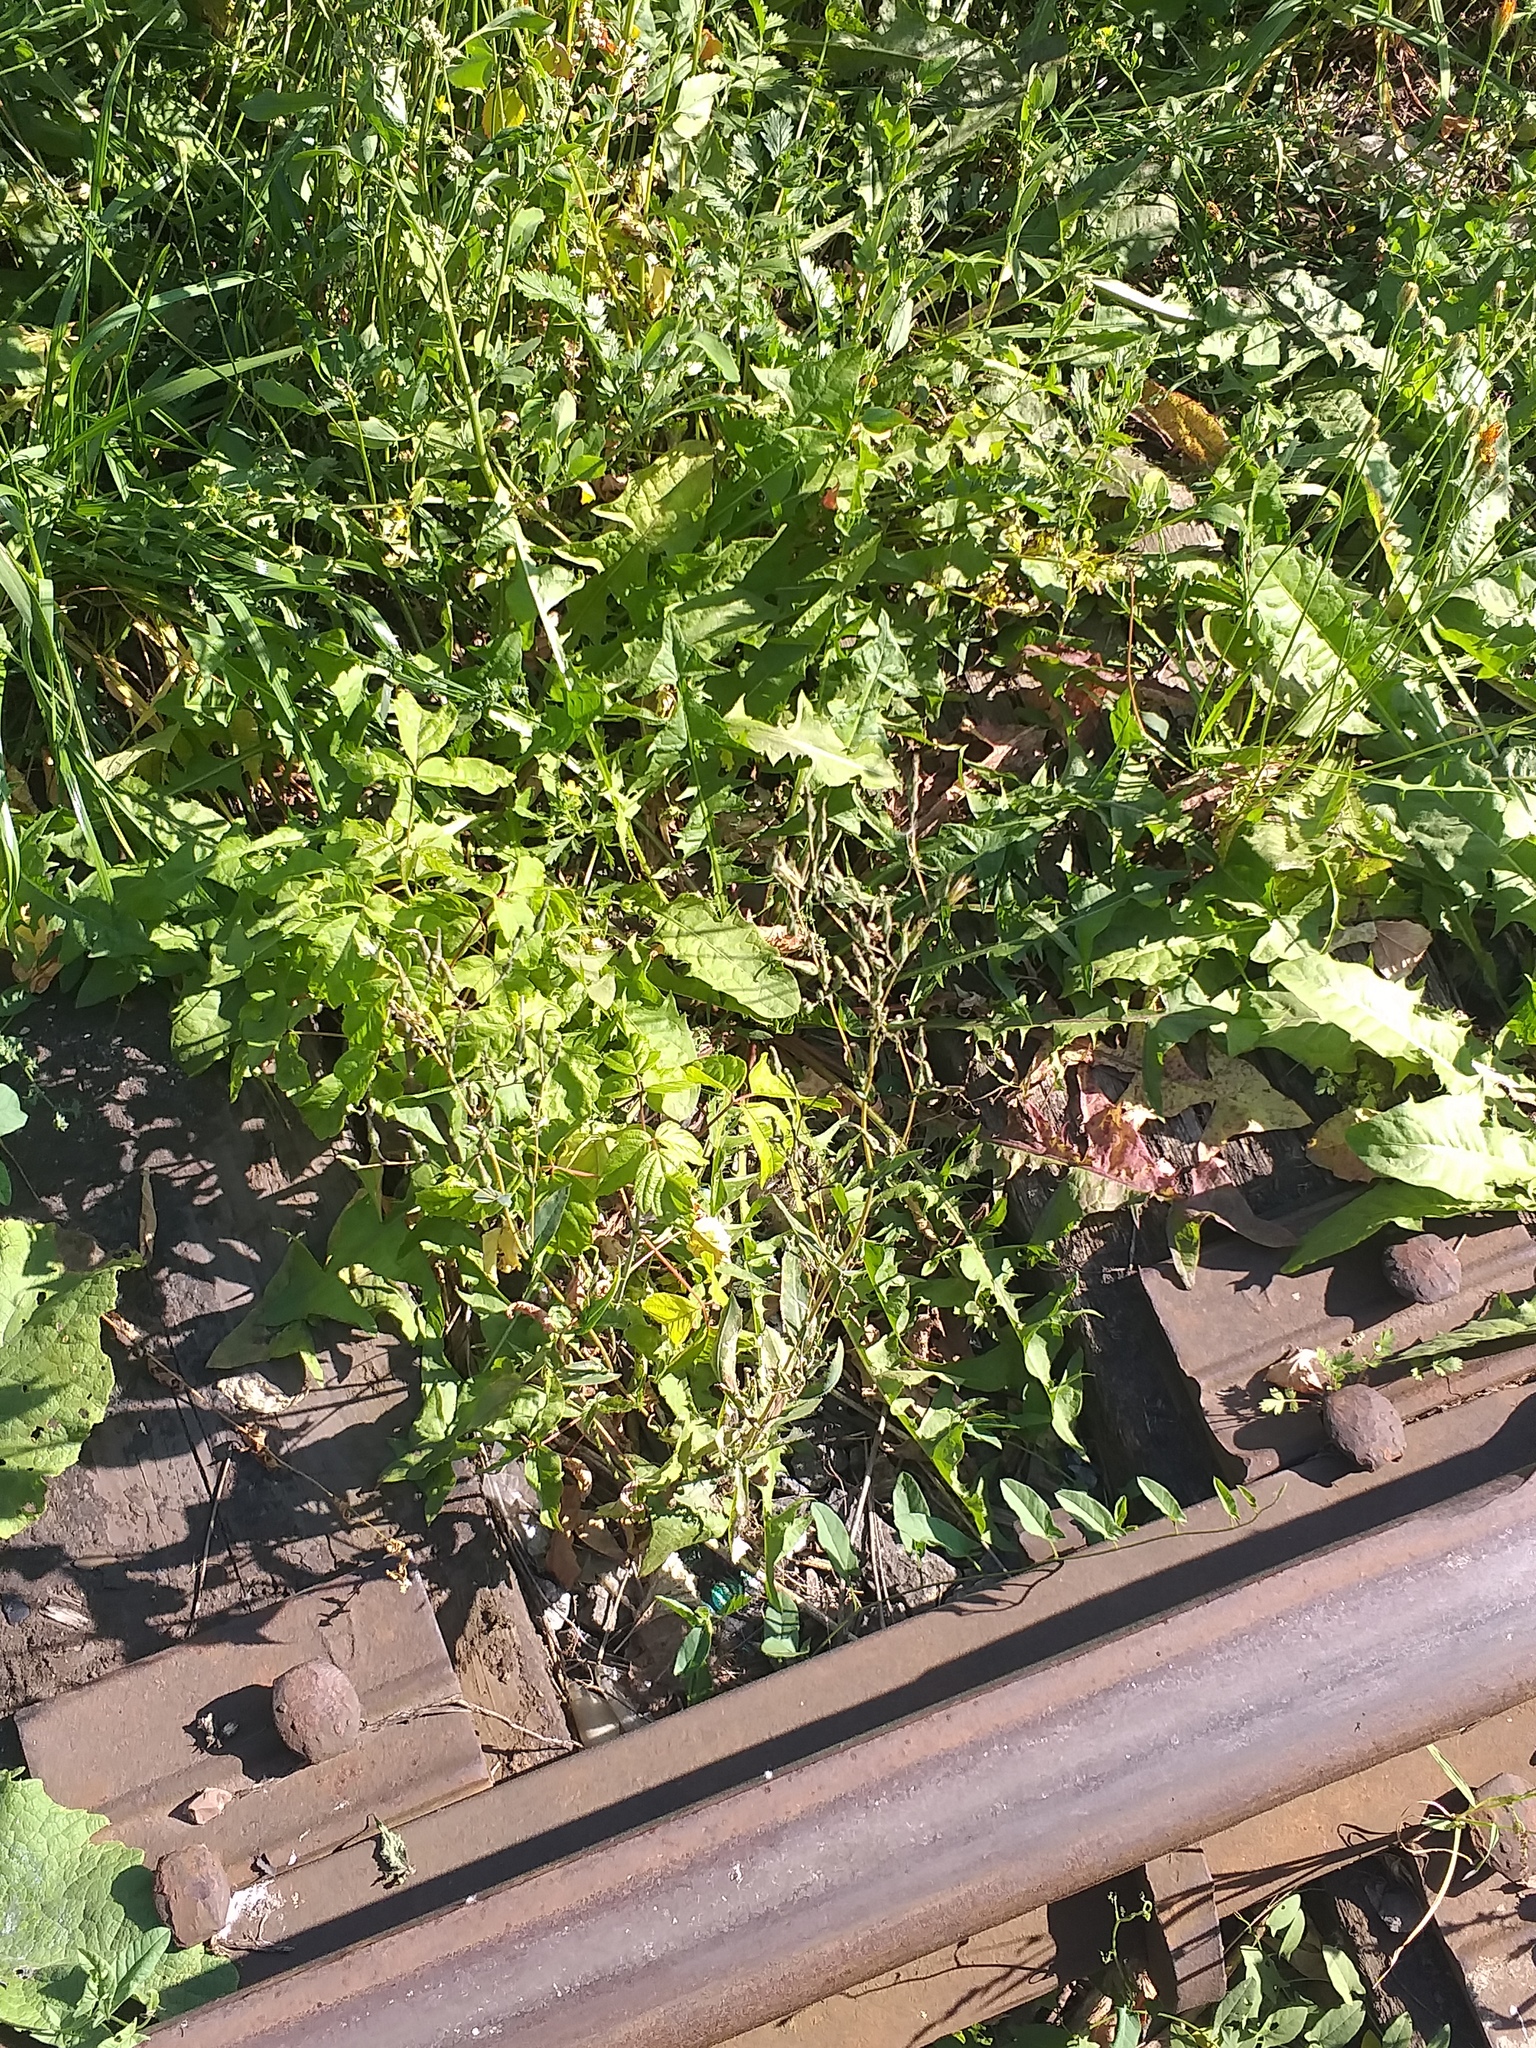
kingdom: Plantae
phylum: Tracheophyta
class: Magnoliopsida
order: Asterales
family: Asteraceae
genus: Lactuca
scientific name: Lactuca serriola
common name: Prickly lettuce
